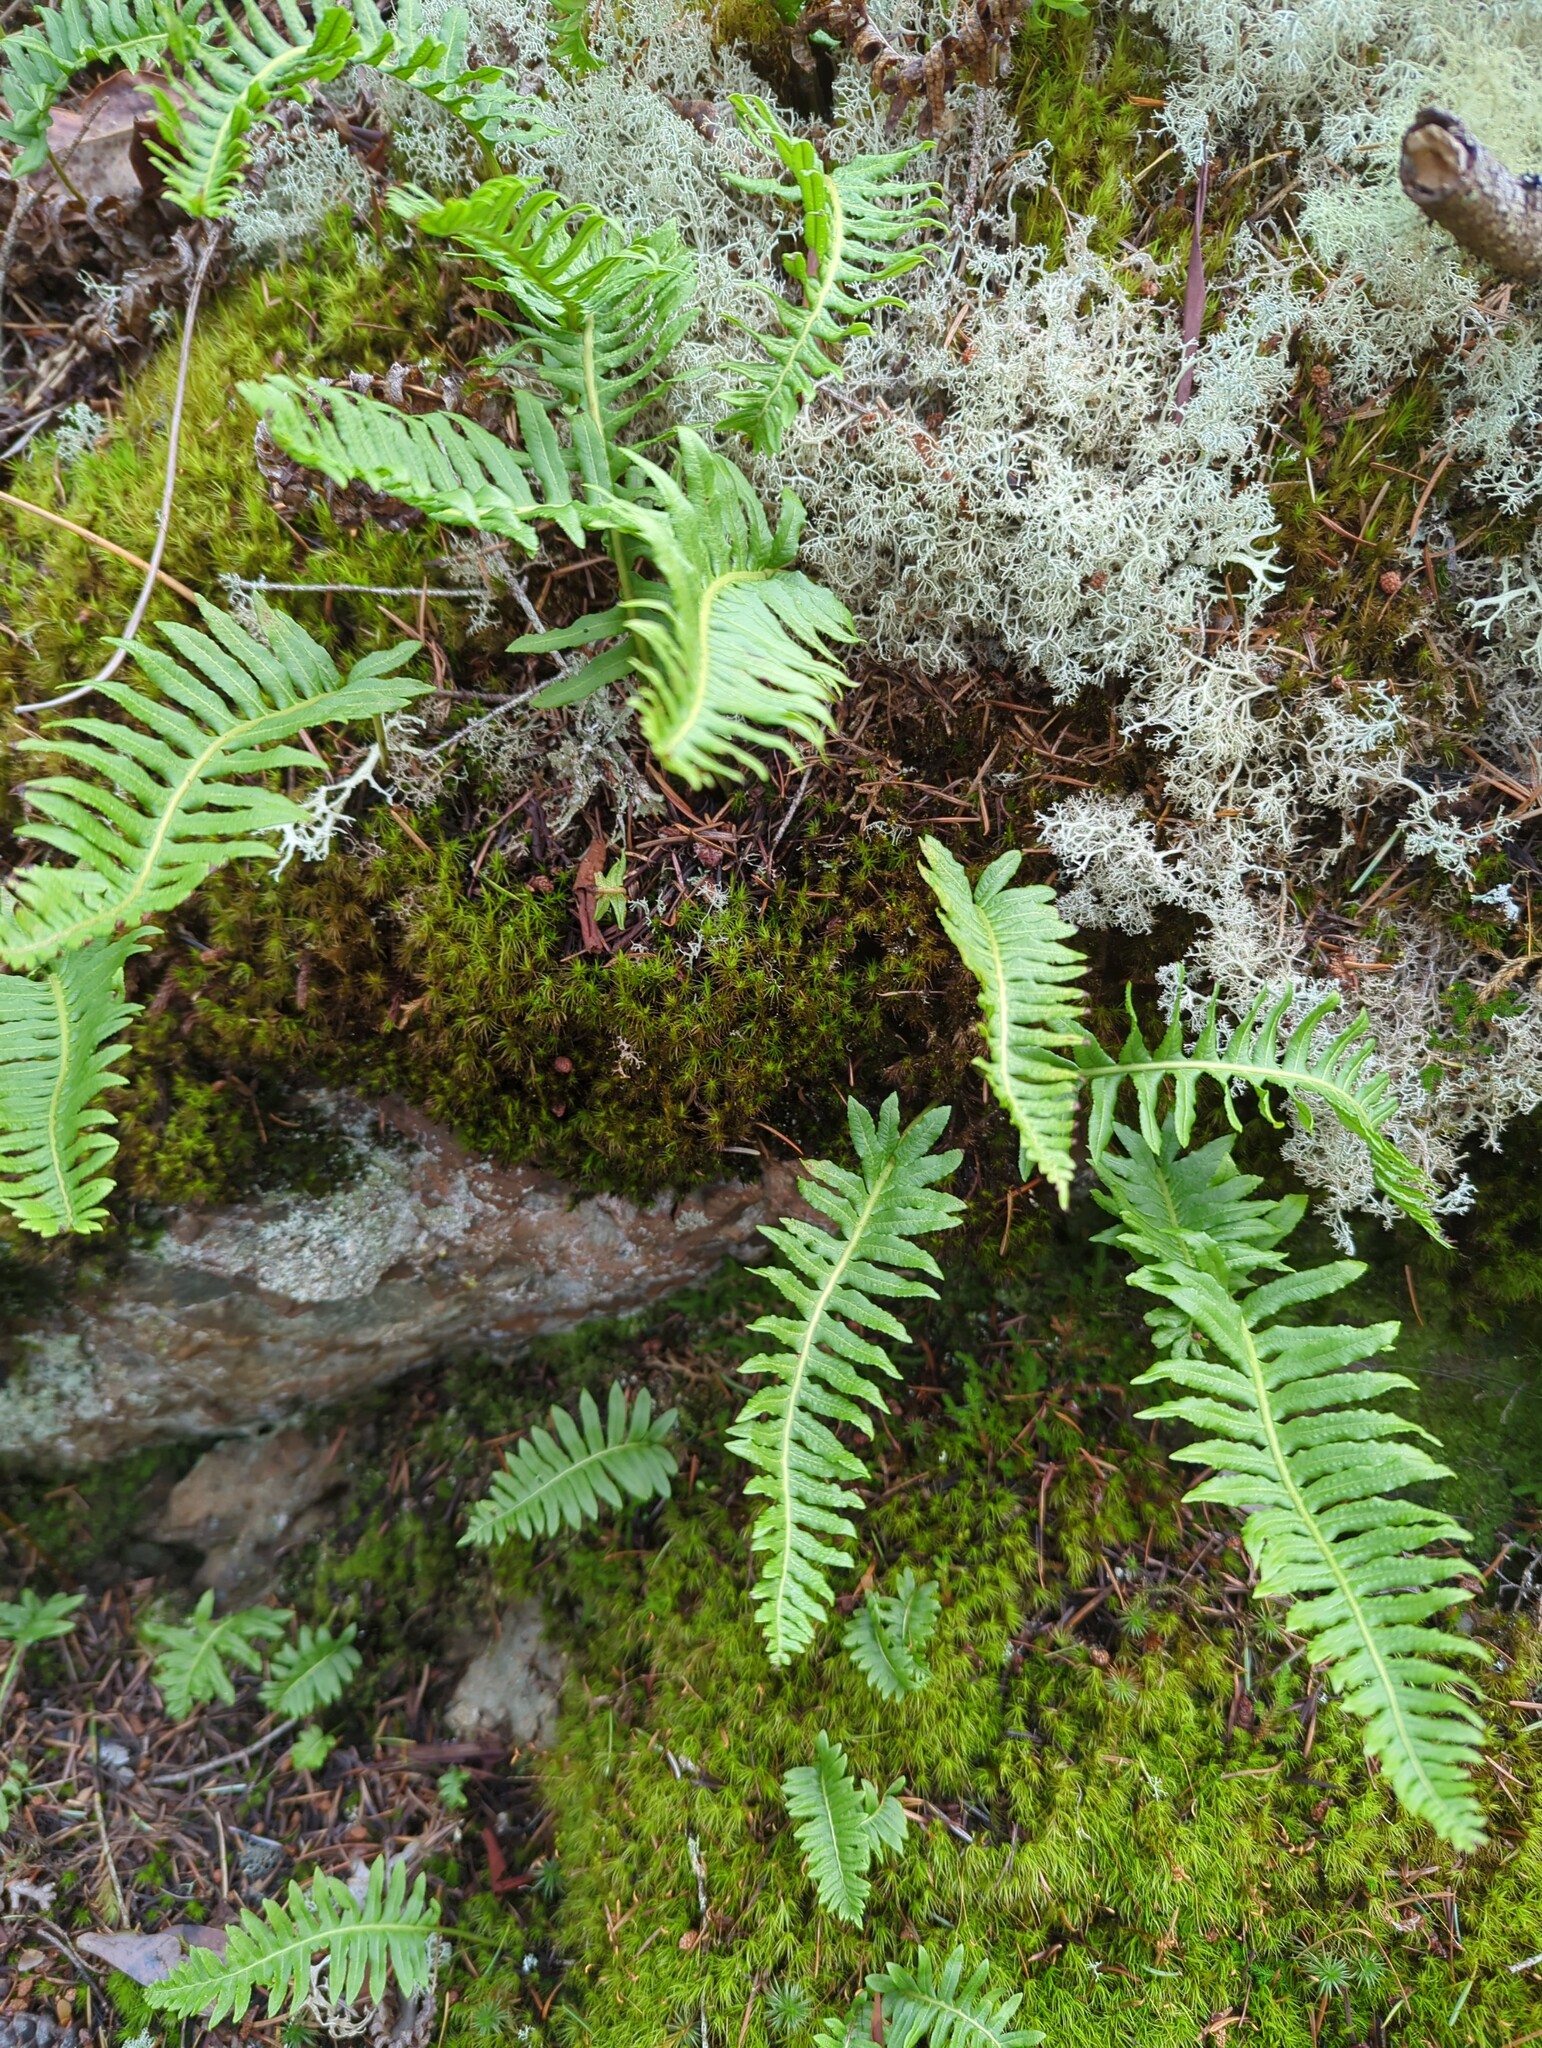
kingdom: Plantae
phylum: Tracheophyta
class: Polypodiopsida
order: Polypodiales
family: Polypodiaceae
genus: Polypodium
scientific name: Polypodium glycyrrhiza
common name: Licorice fern
